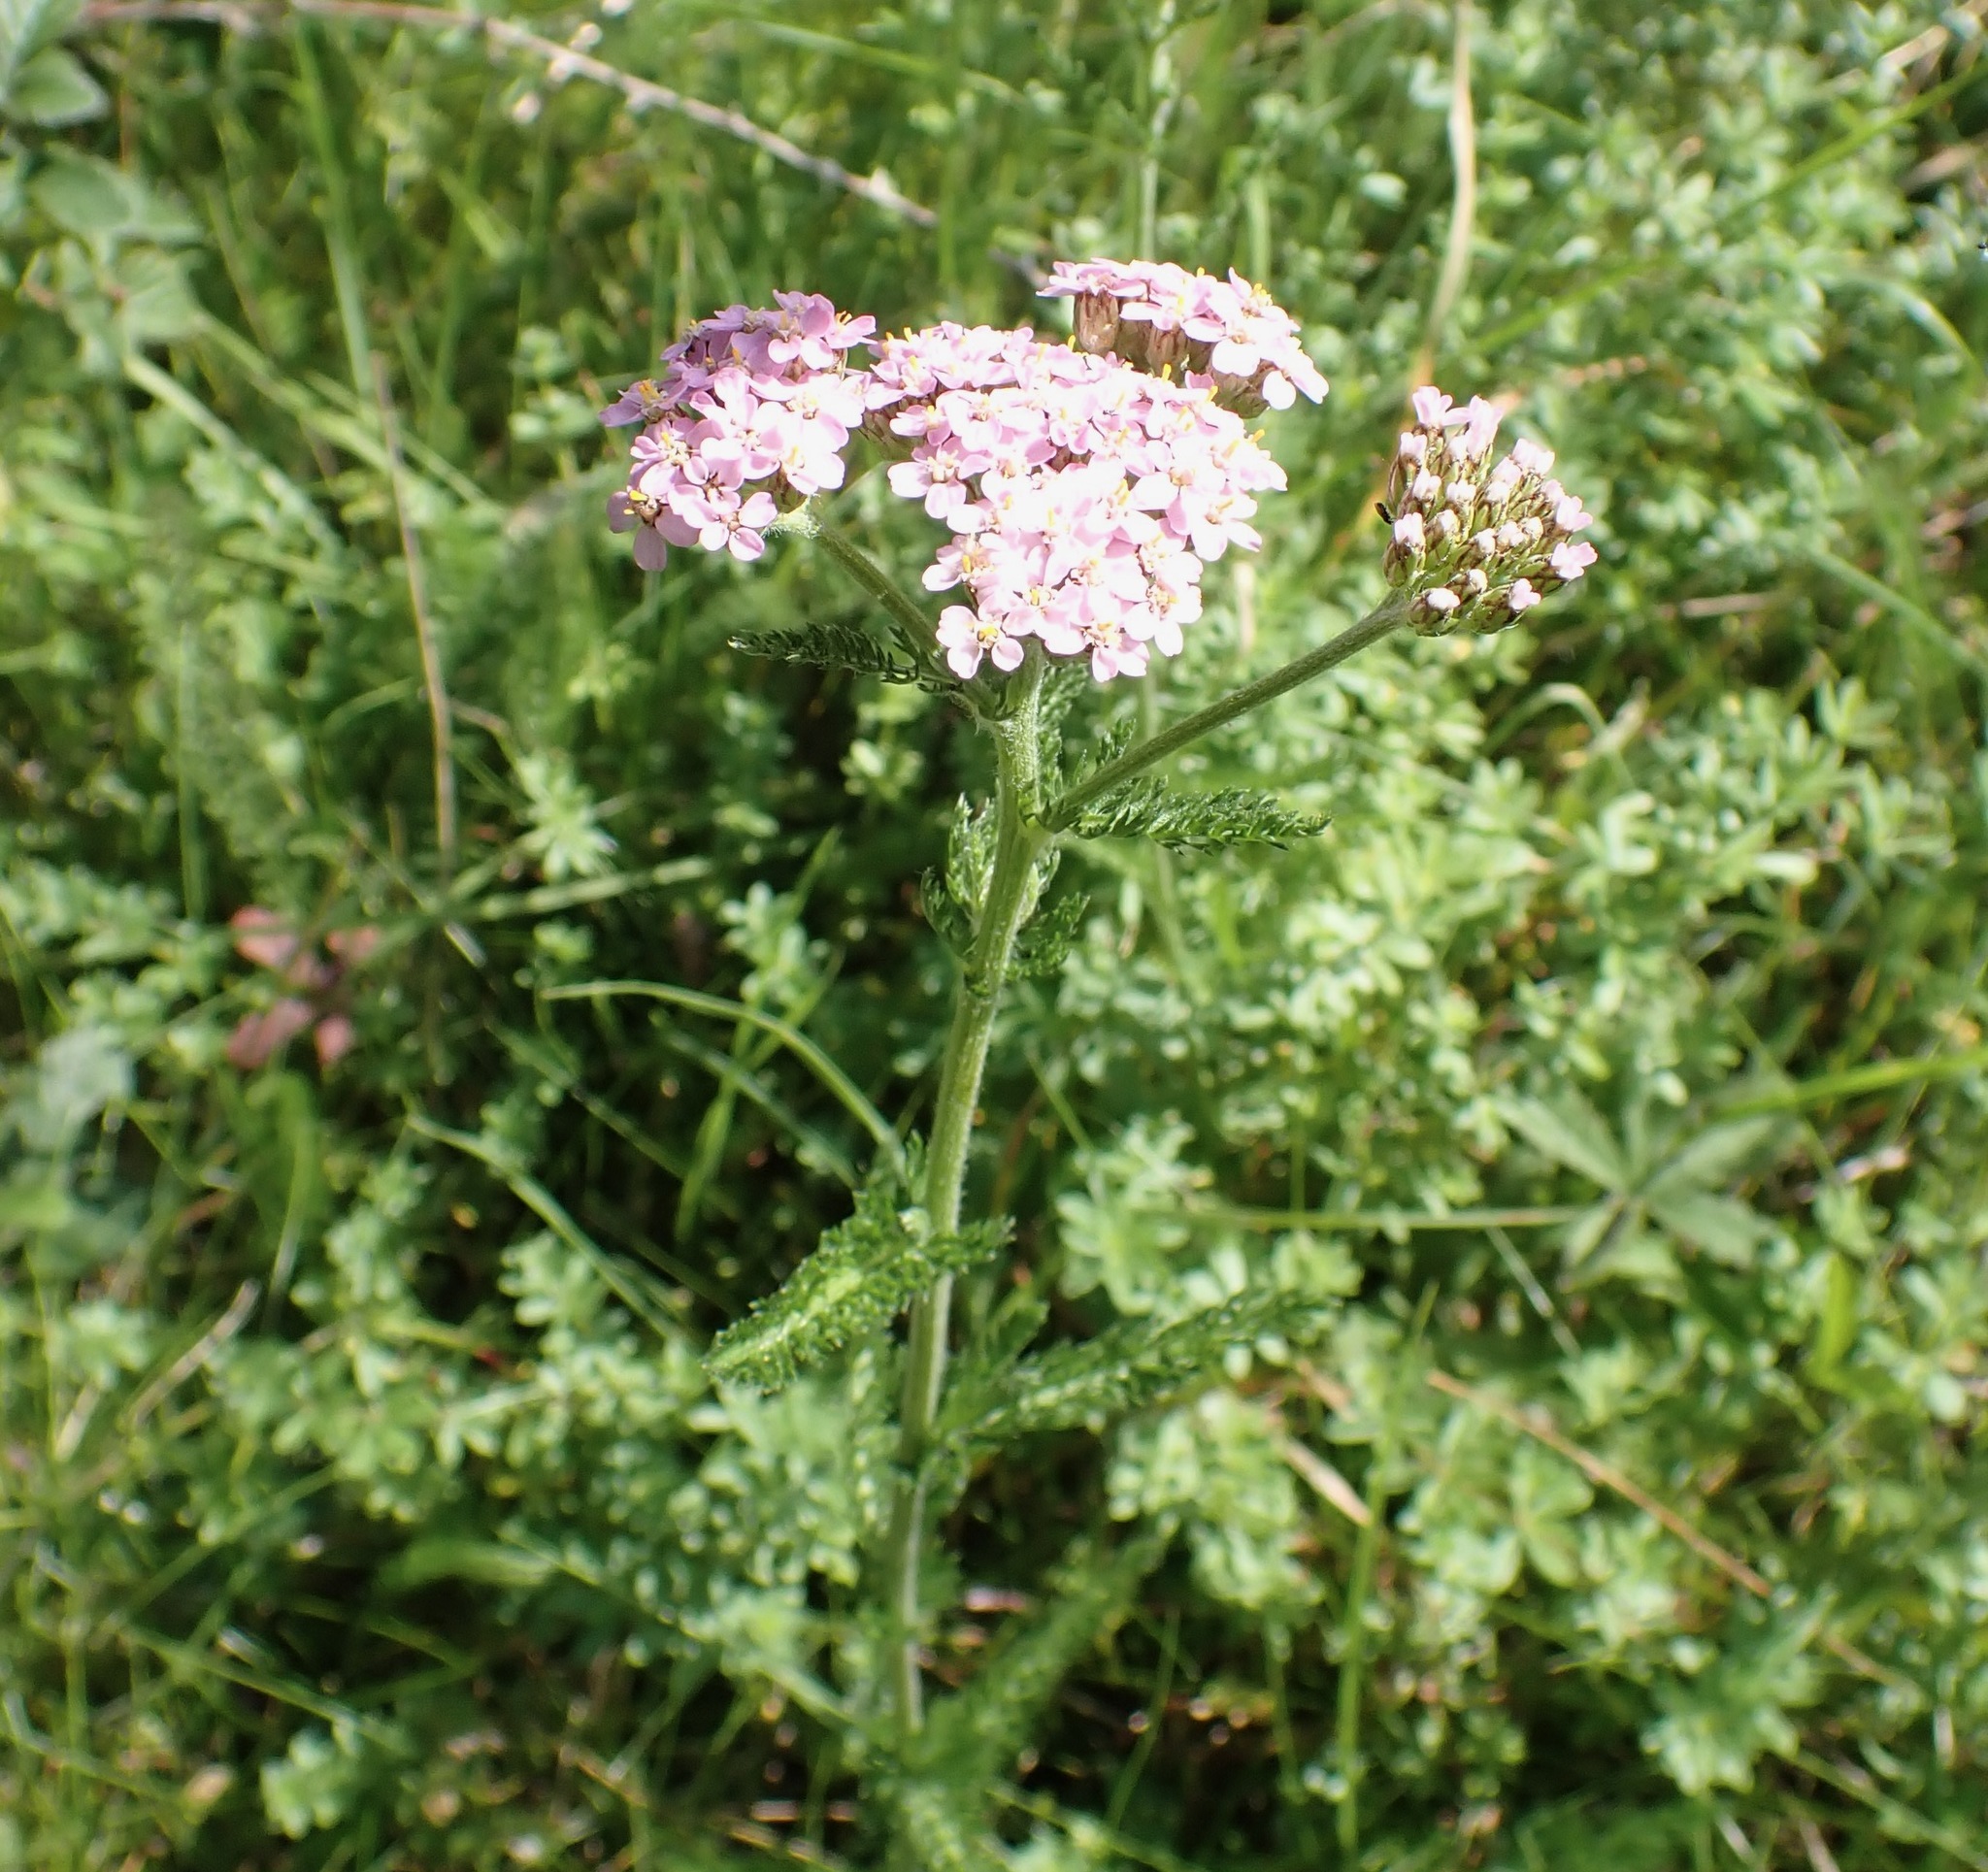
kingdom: Plantae
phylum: Tracheophyta
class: Magnoliopsida
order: Asterales
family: Asteraceae
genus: Achillea
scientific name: Achillea millefolium
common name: Yarrow
